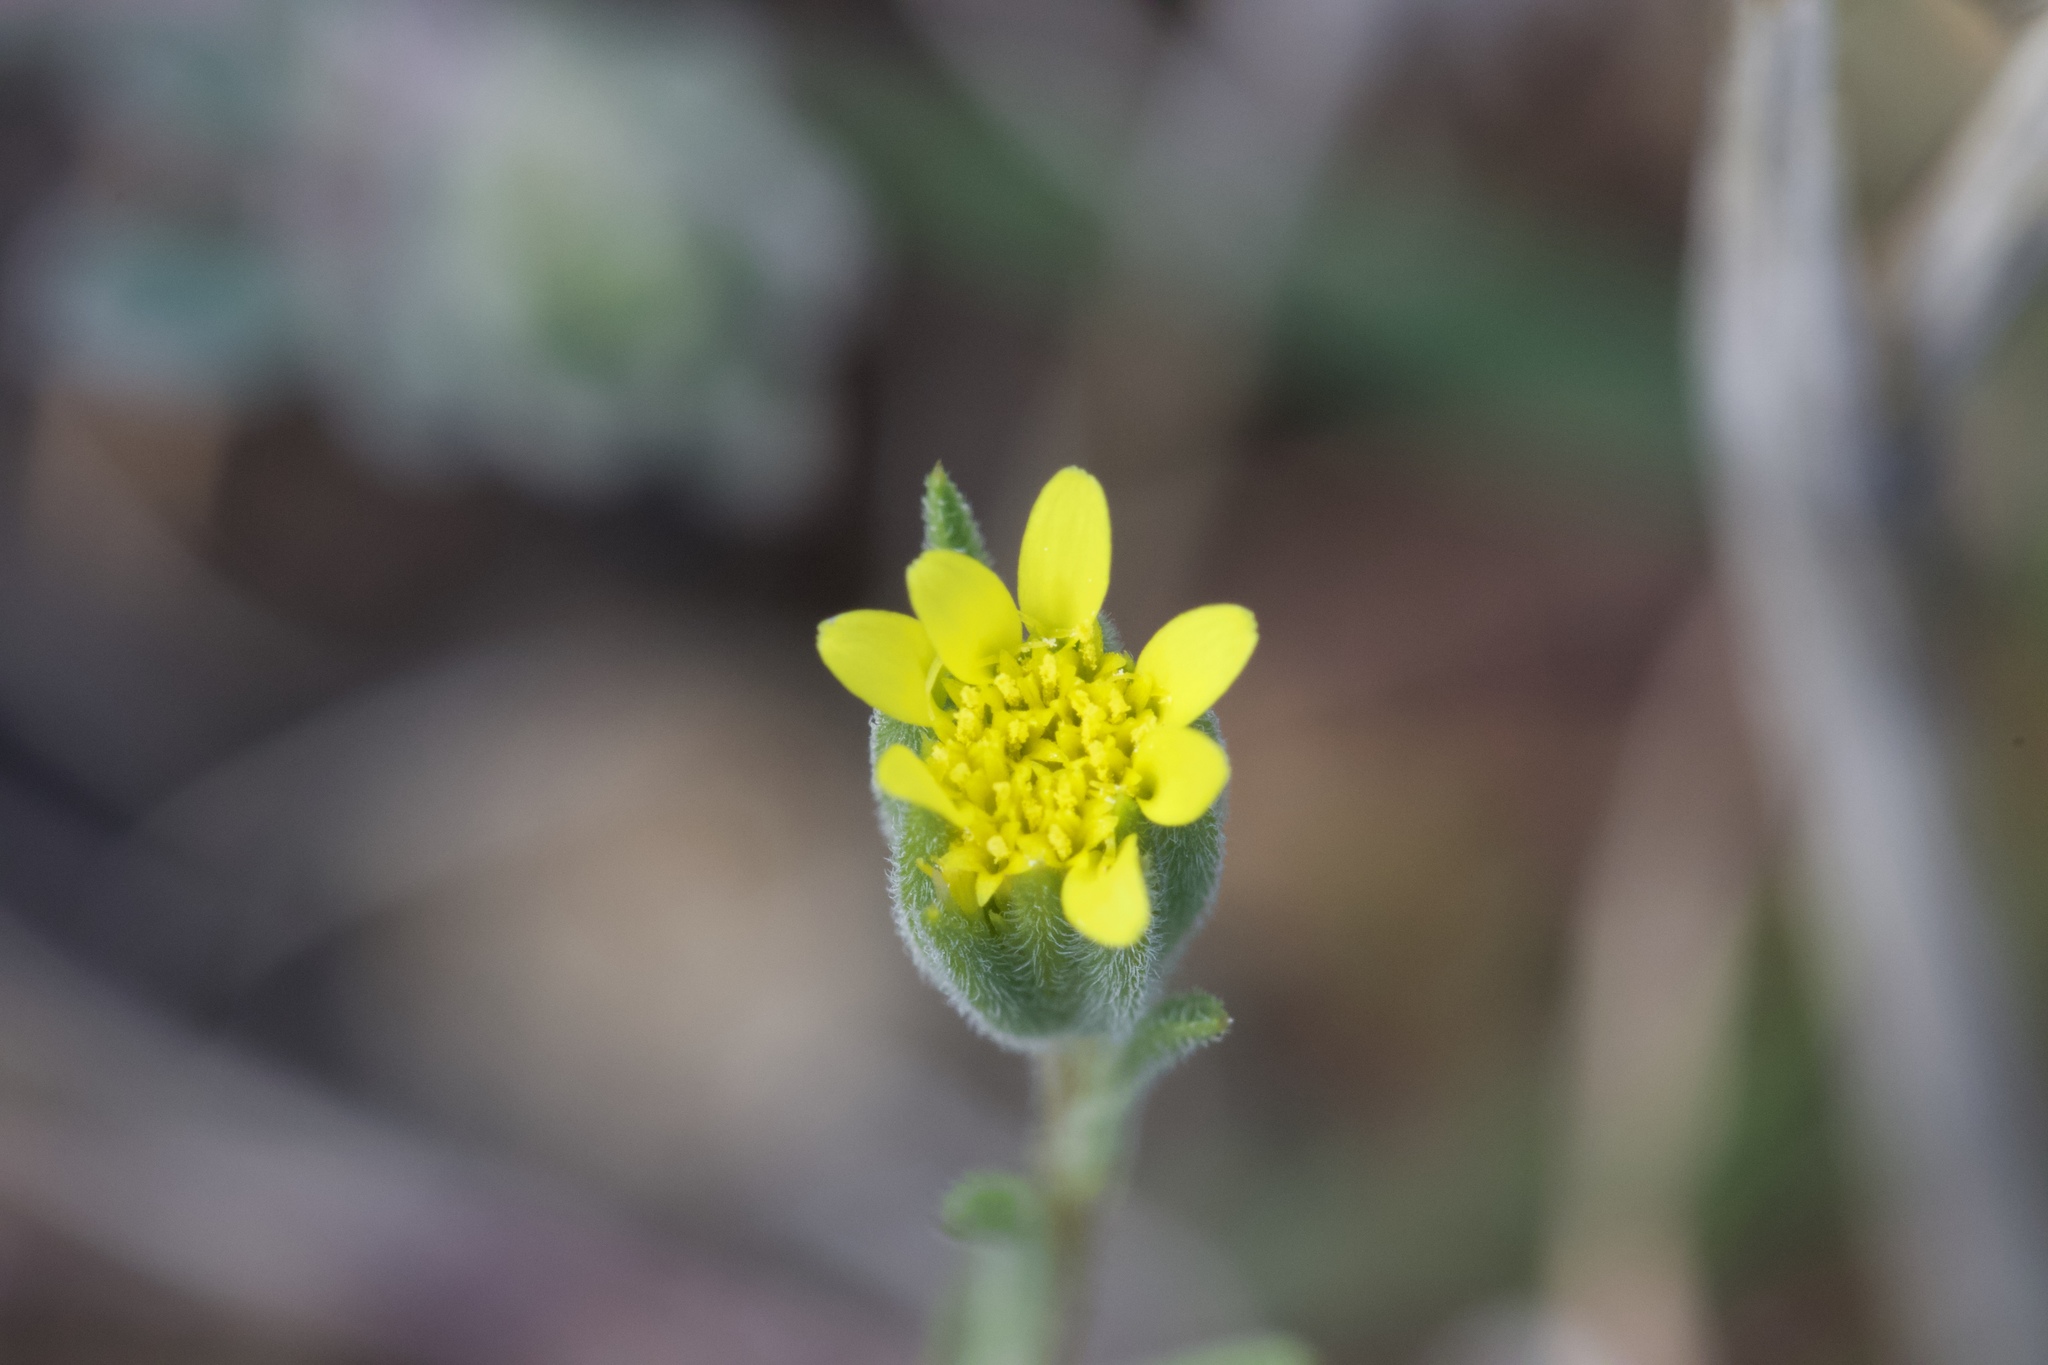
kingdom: Plantae
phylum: Tracheophyta
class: Magnoliopsida
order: Asterales
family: Asteraceae
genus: Rigiopappus
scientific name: Rigiopappus leptocladus
